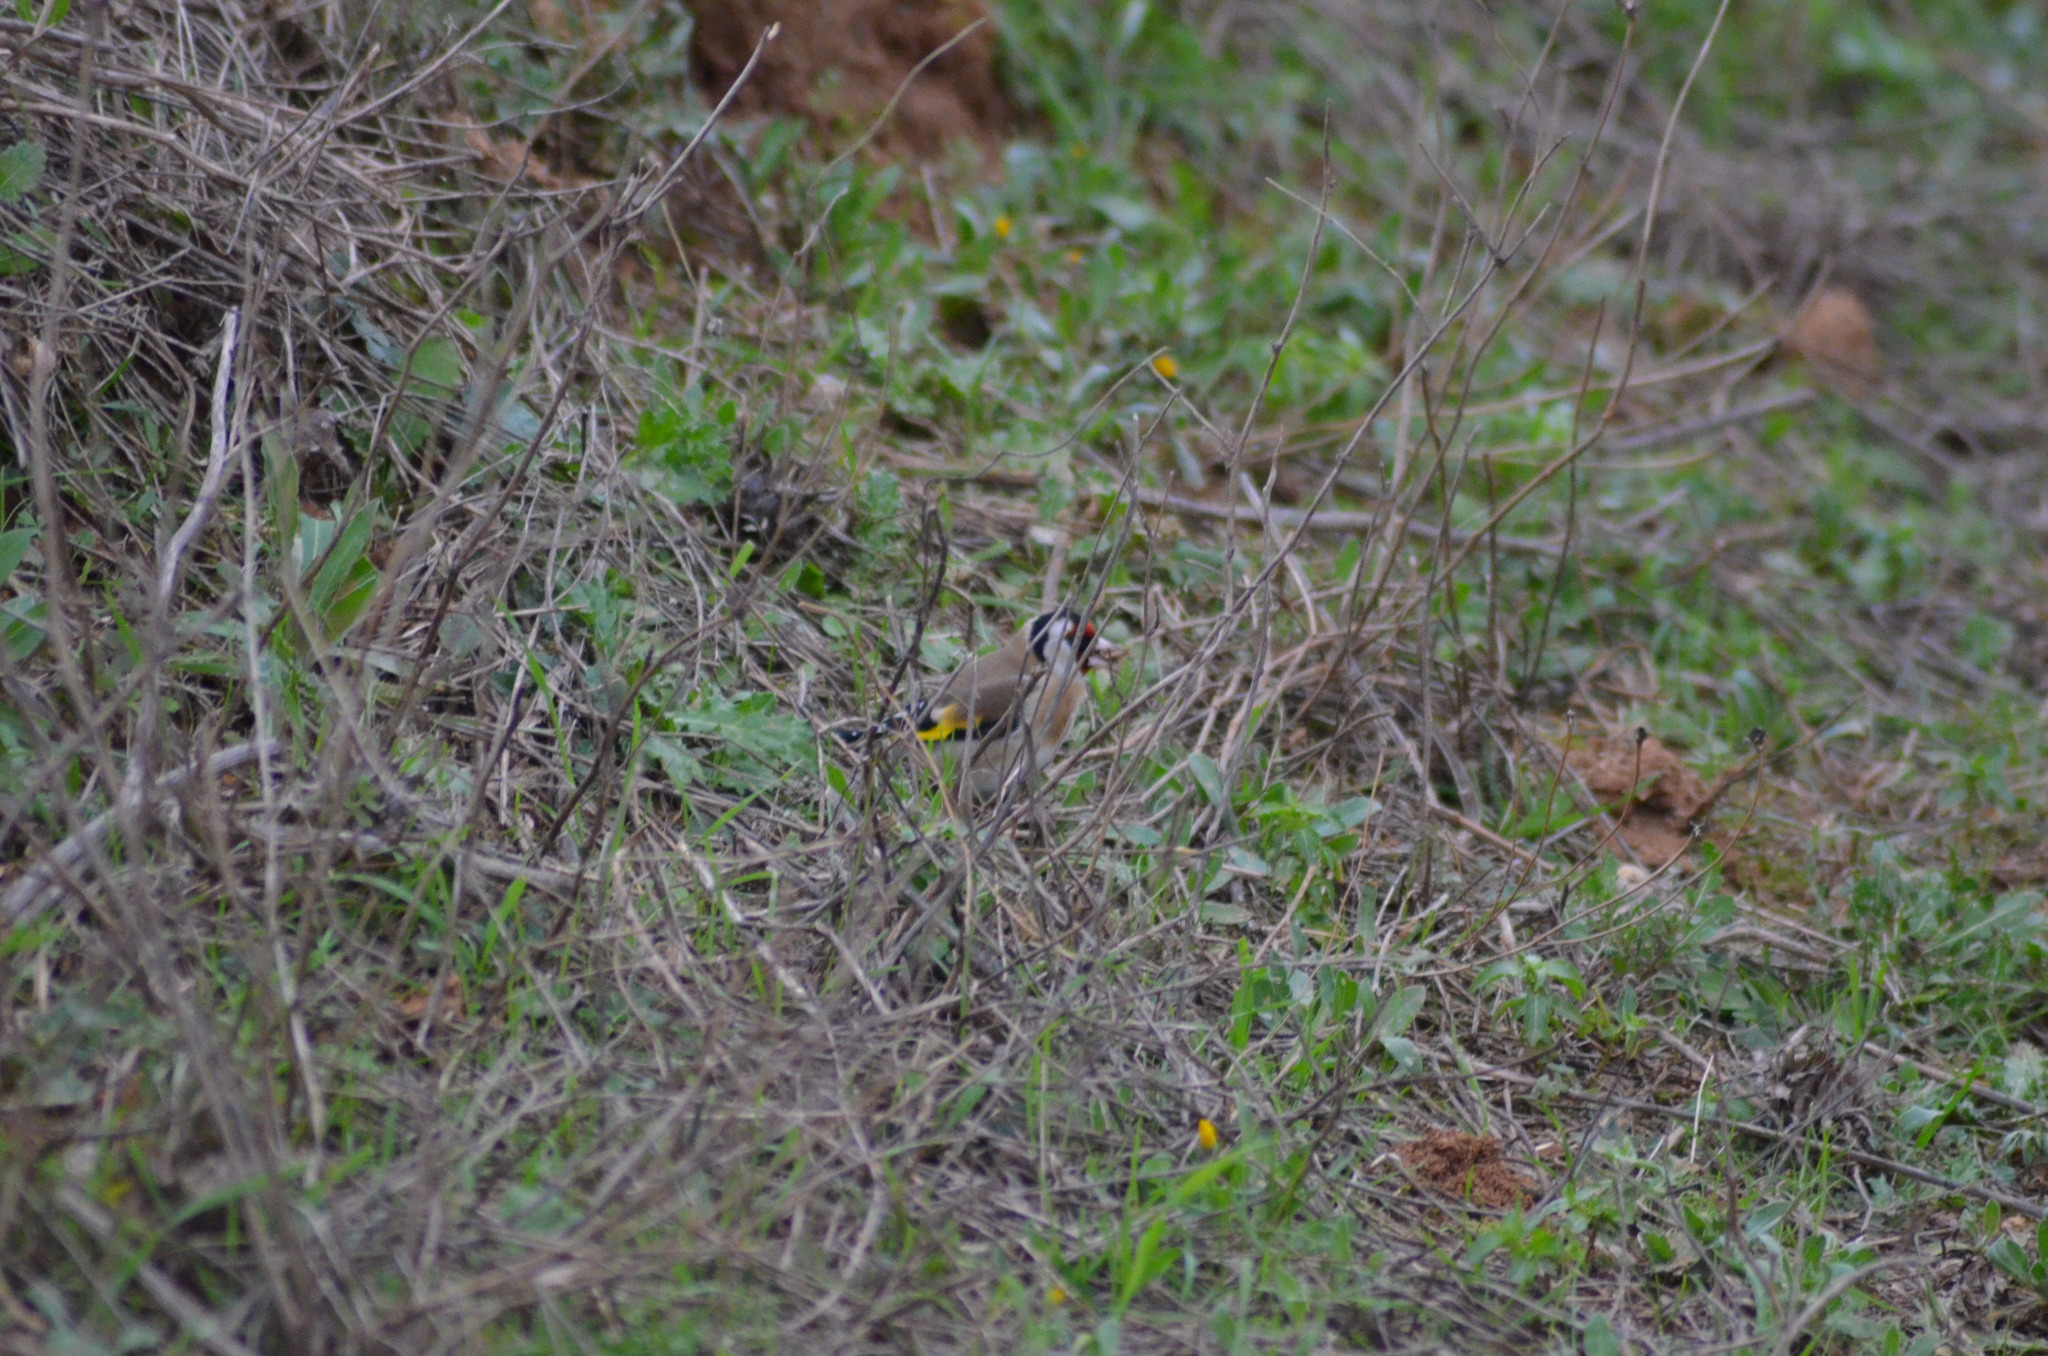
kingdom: Animalia
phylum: Chordata
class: Aves
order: Passeriformes
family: Fringillidae
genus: Carduelis
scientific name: Carduelis carduelis
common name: European goldfinch
